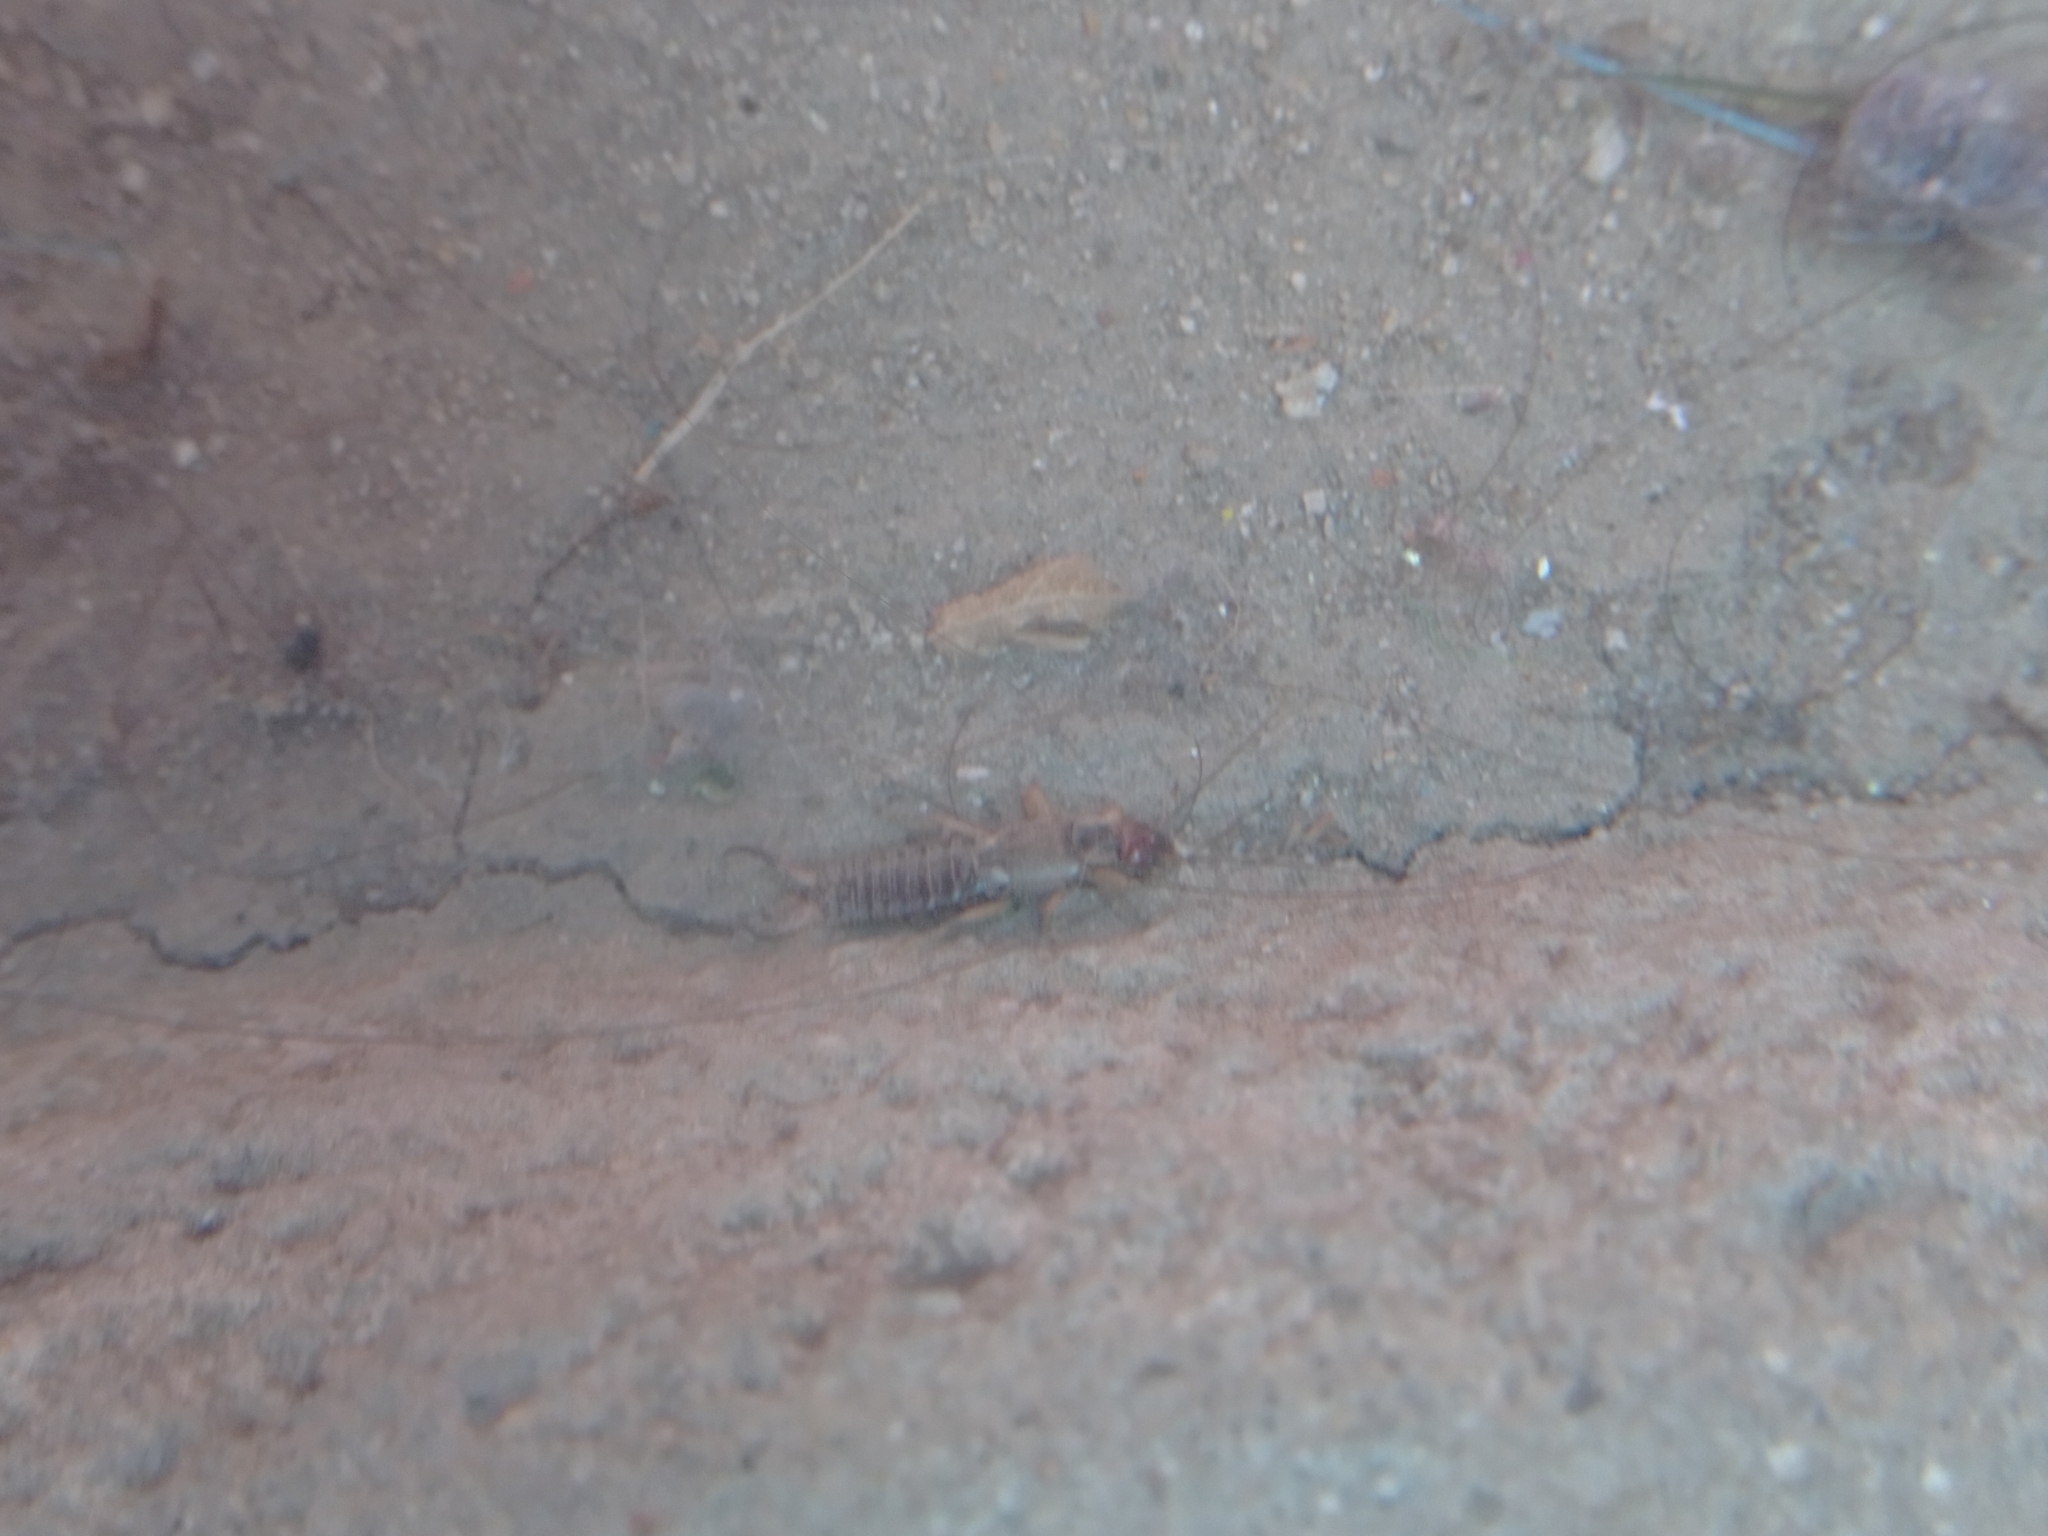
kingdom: Animalia
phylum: Arthropoda
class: Insecta
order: Dermaptera
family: Forficulidae
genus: Forficula
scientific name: Forficula
